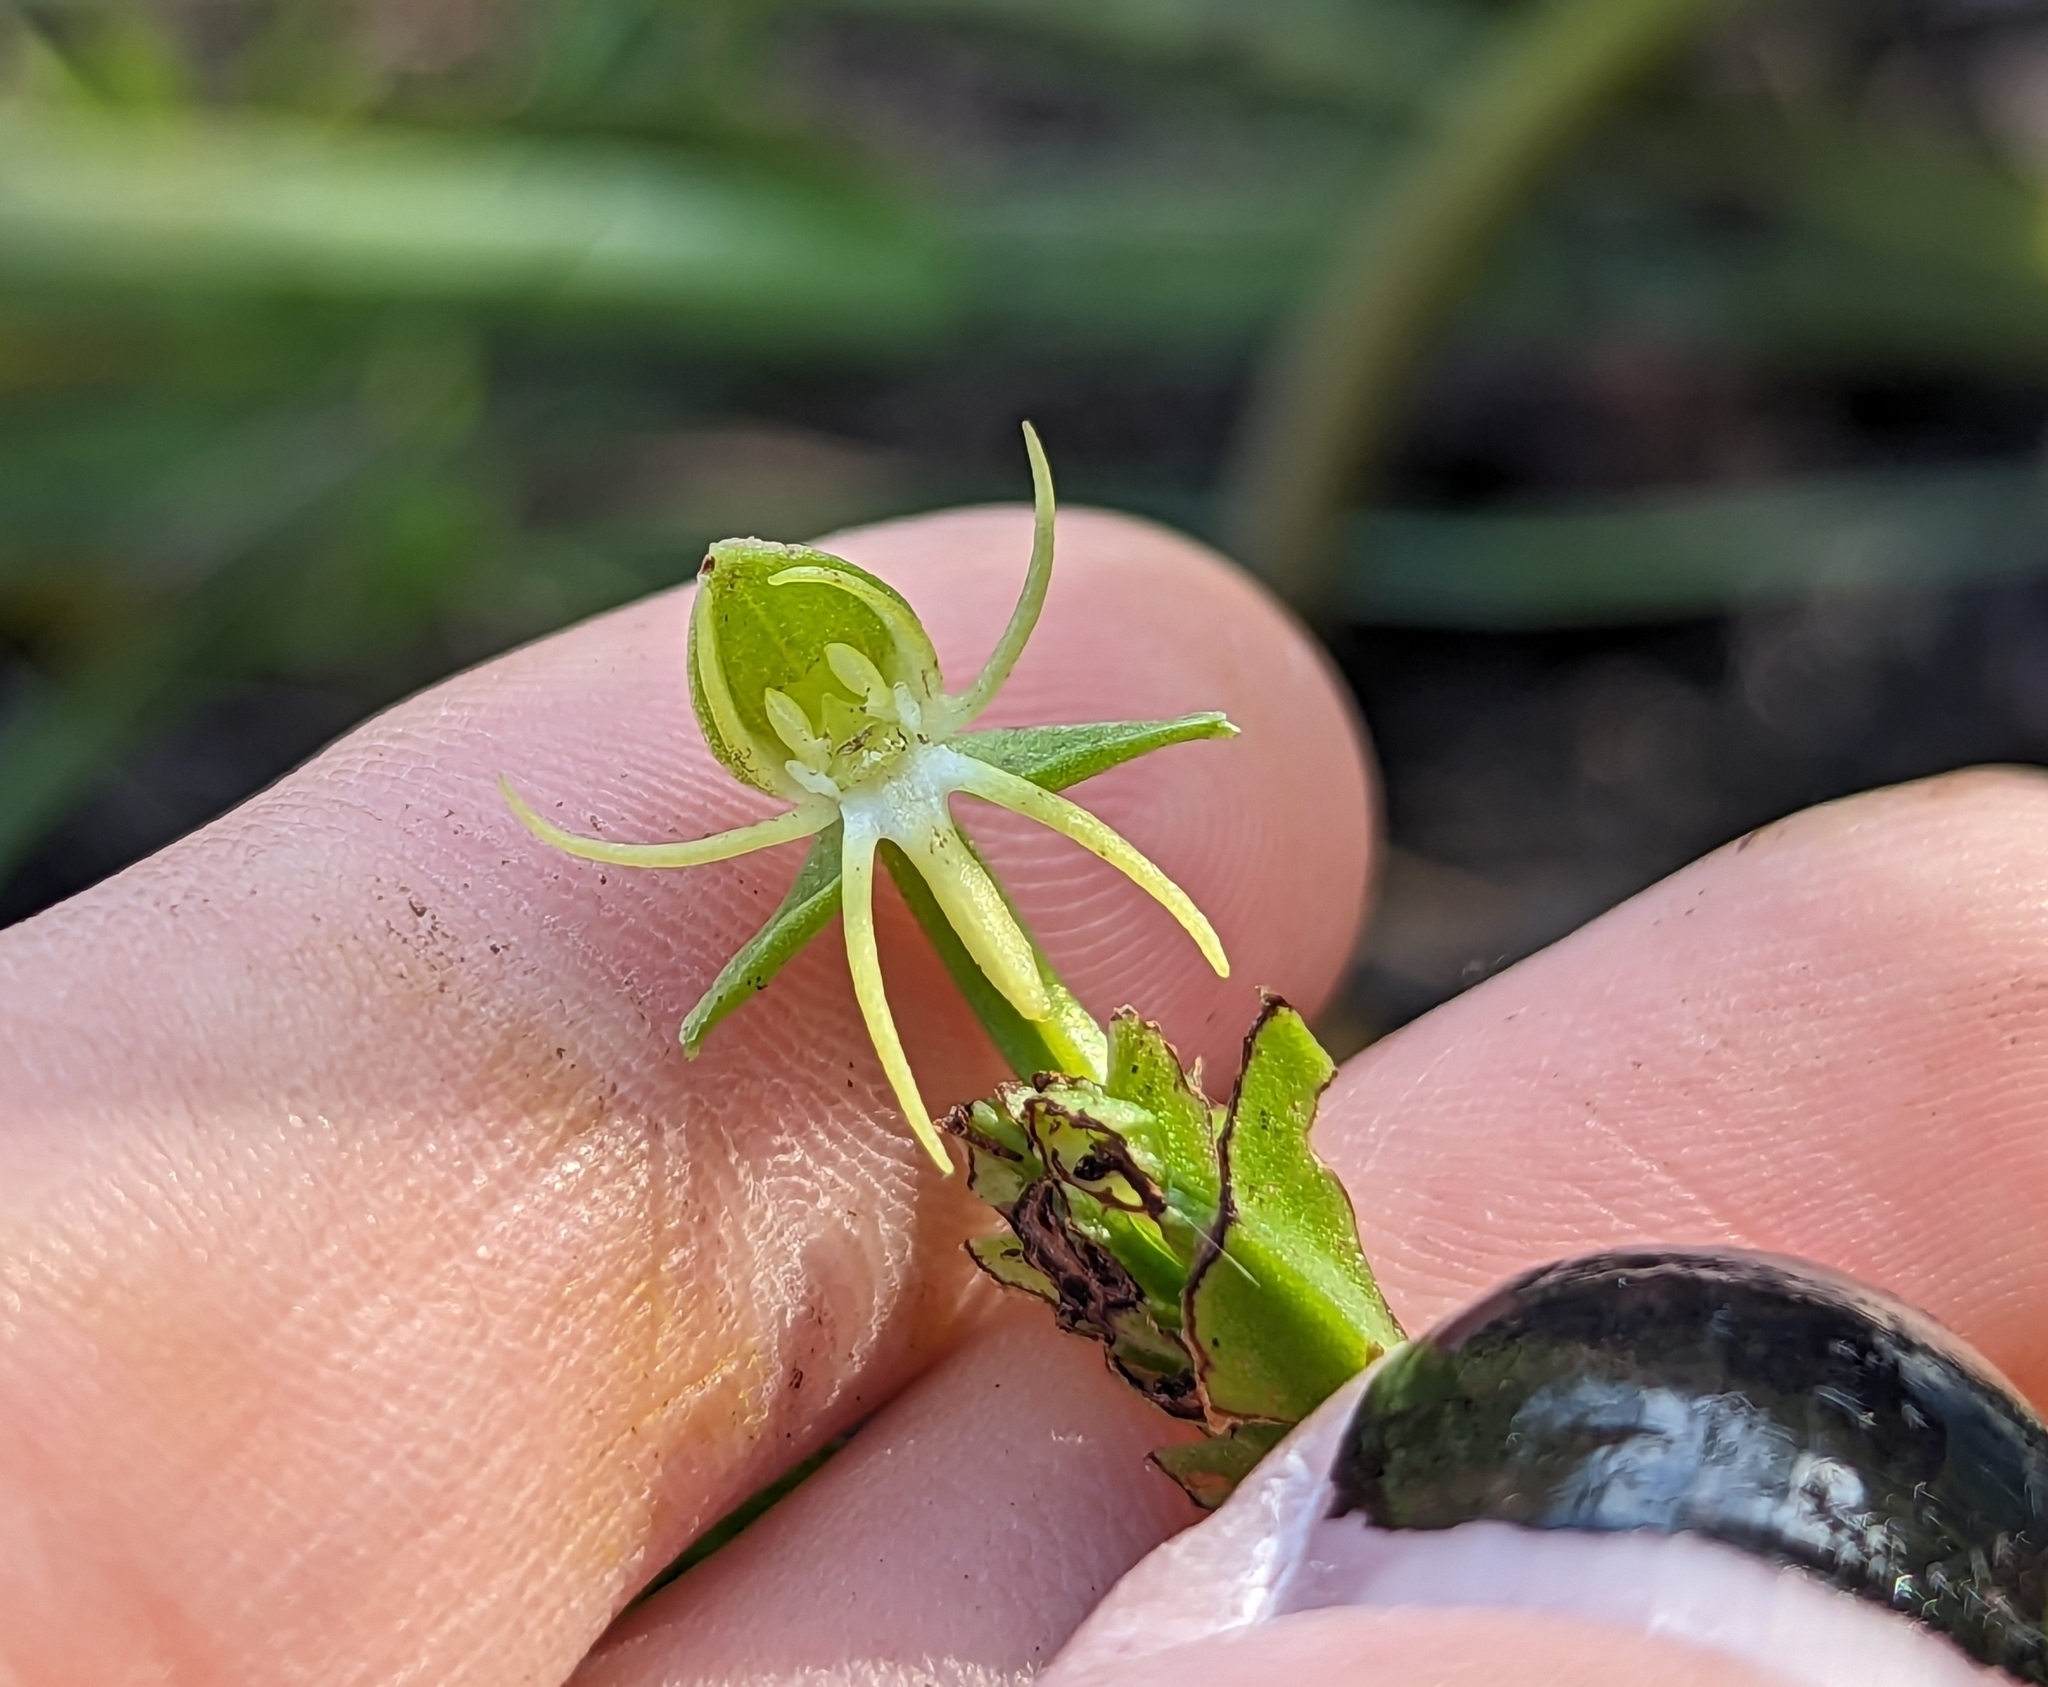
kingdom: Plantae
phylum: Tracheophyta
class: Liliopsida
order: Asparagales
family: Orchidaceae
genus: Habenaria
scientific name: Habenaria repens
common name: Water orchid
